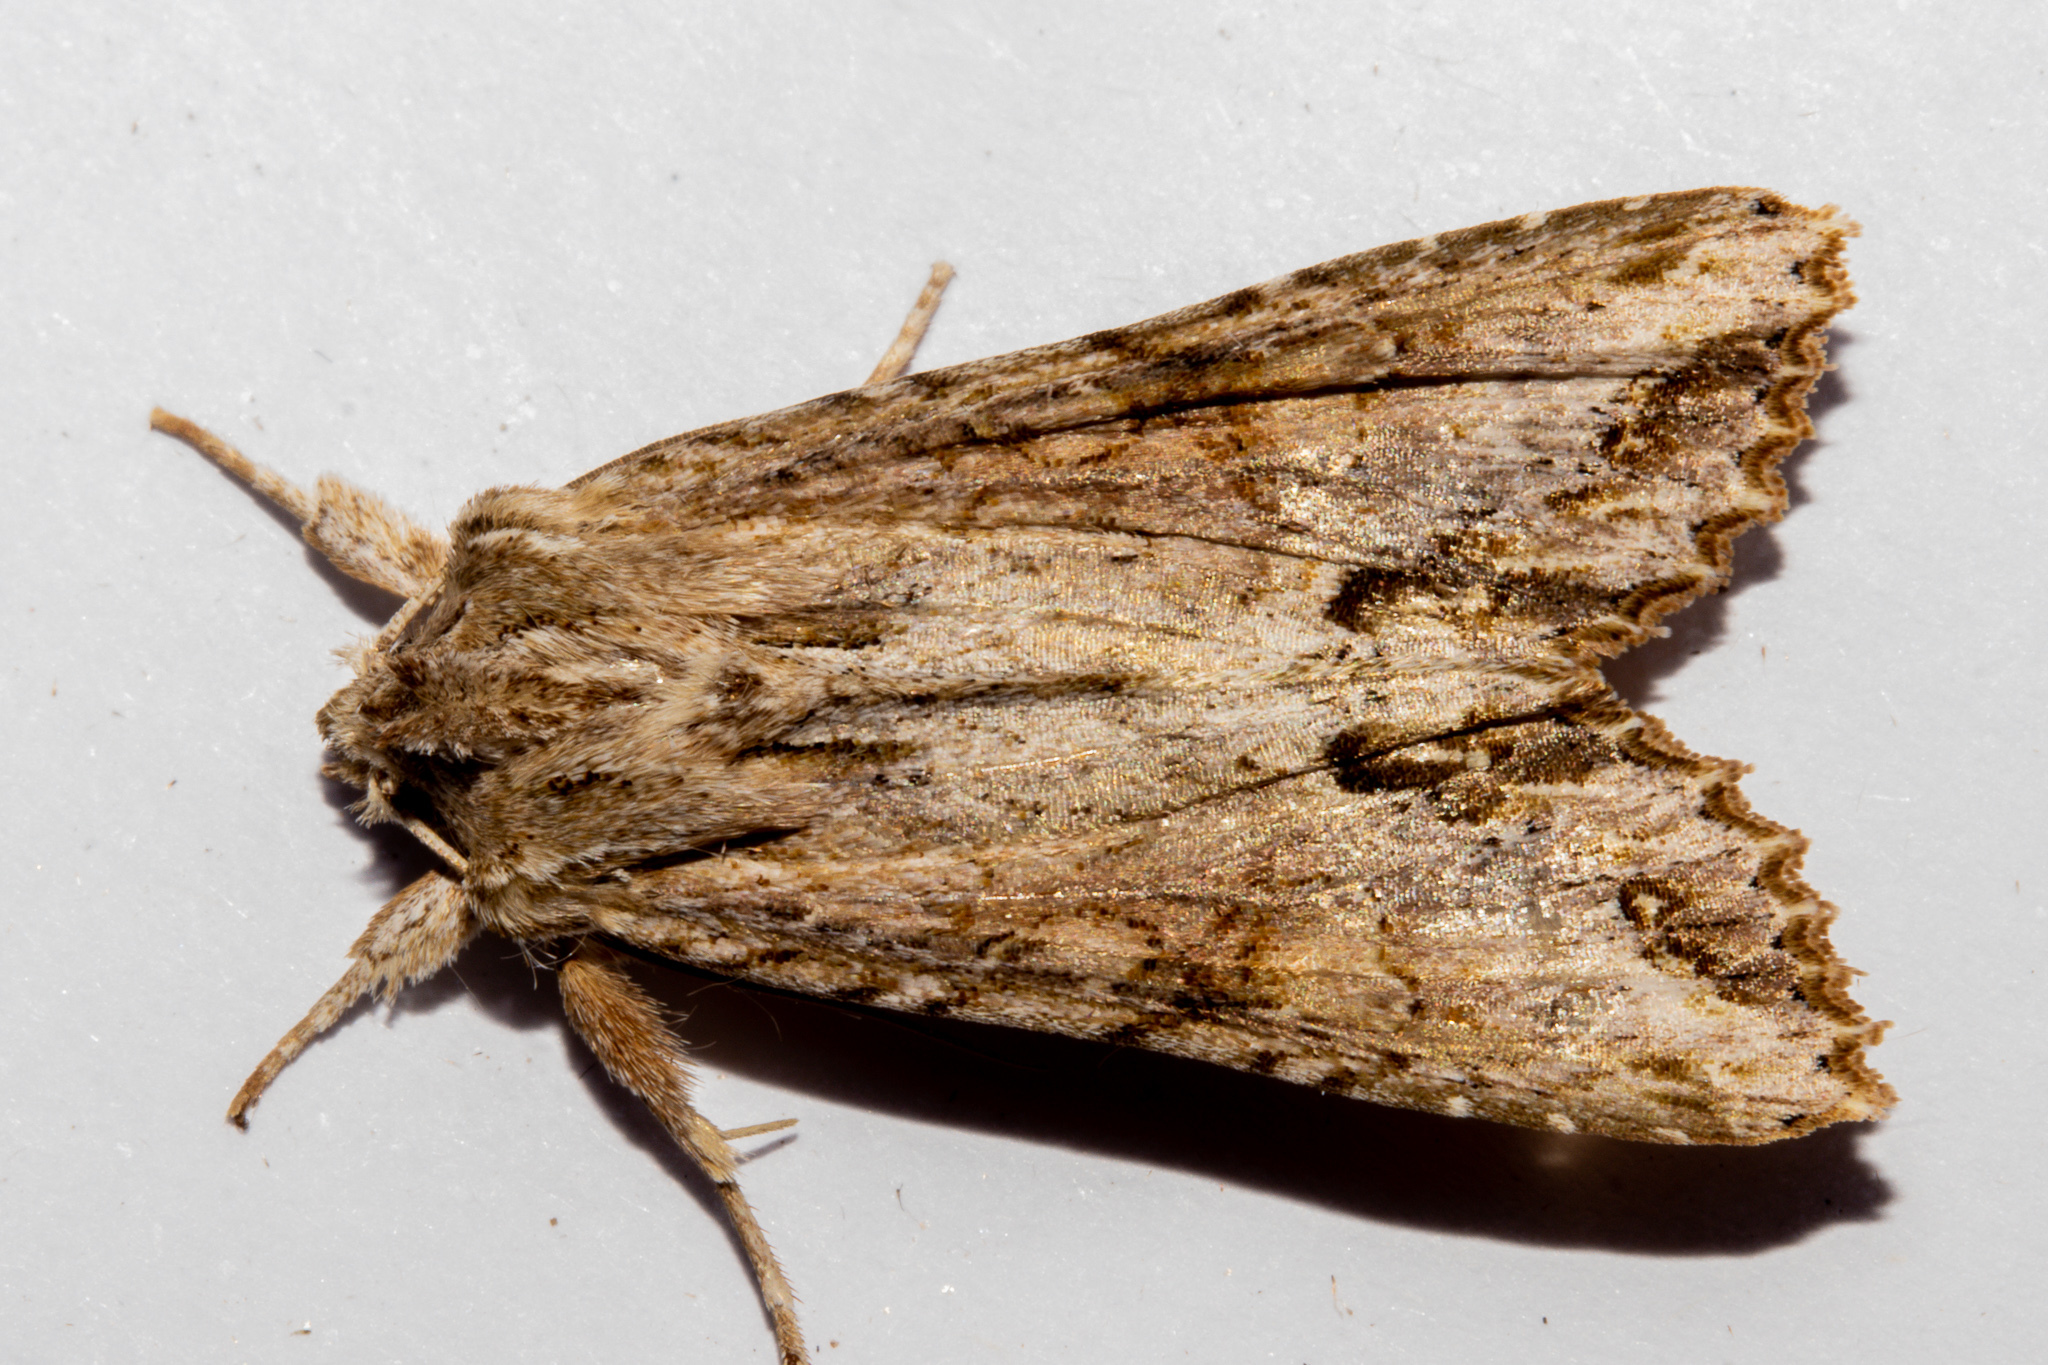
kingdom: Animalia
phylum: Arthropoda
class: Insecta
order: Lepidoptera
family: Noctuidae
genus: Ichneutica
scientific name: Ichneutica mollis
